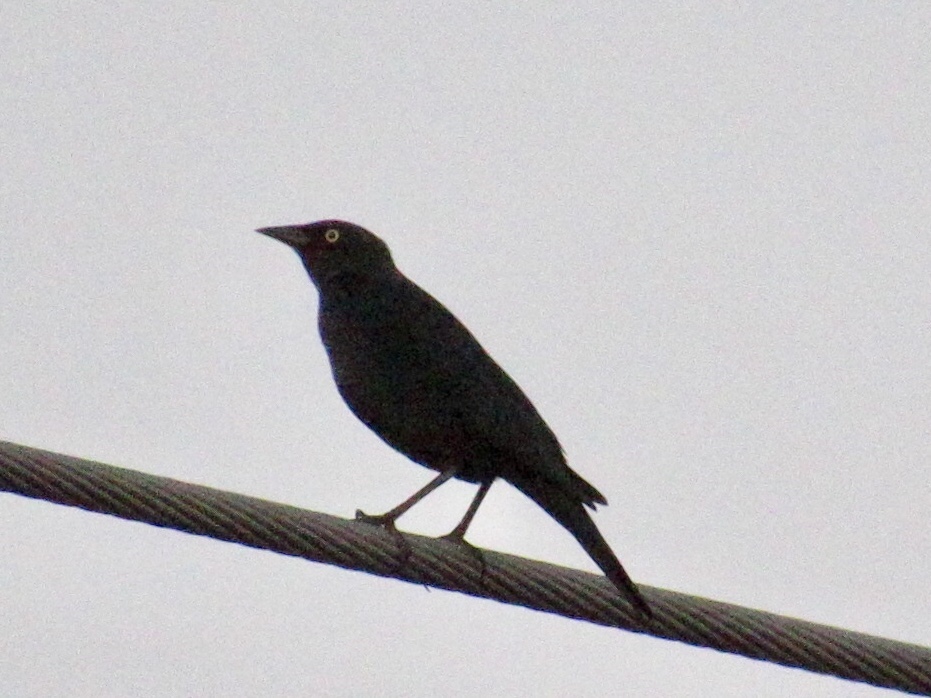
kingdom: Animalia
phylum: Chordata
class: Aves
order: Passeriformes
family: Icteridae
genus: Euphagus
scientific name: Euphagus cyanocephalus
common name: Brewer's blackbird
